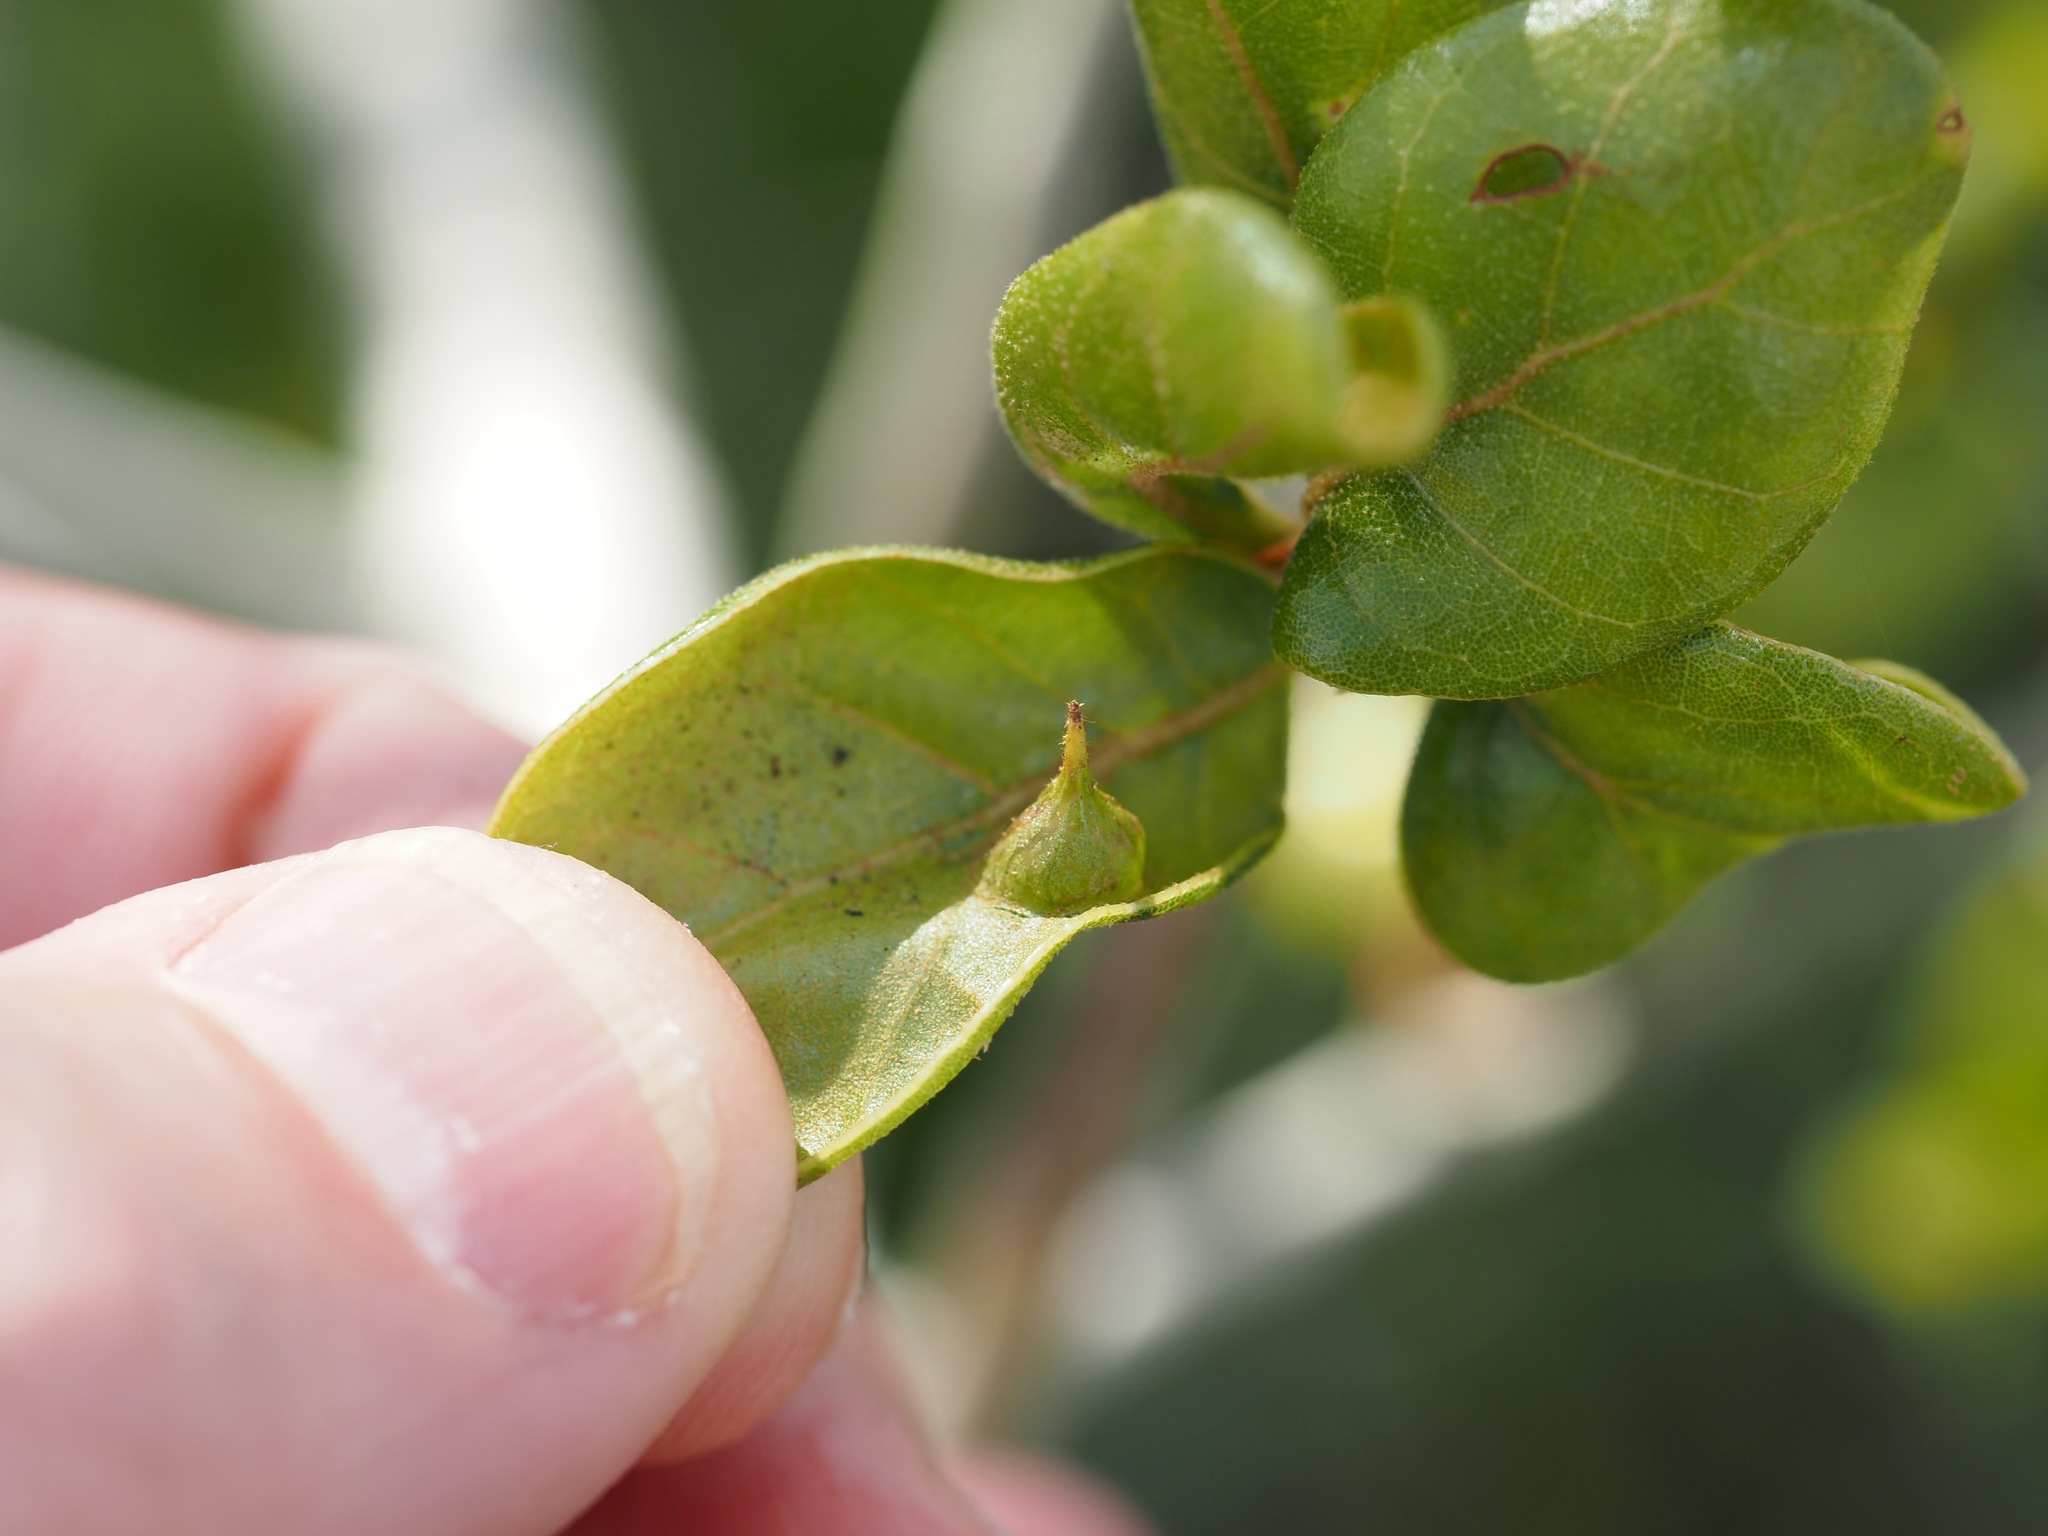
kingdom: Animalia
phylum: Arthropoda
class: Insecta
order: Hymenoptera
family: Cynipidae
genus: Dryocosmus
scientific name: Dryocosmus archboldi
